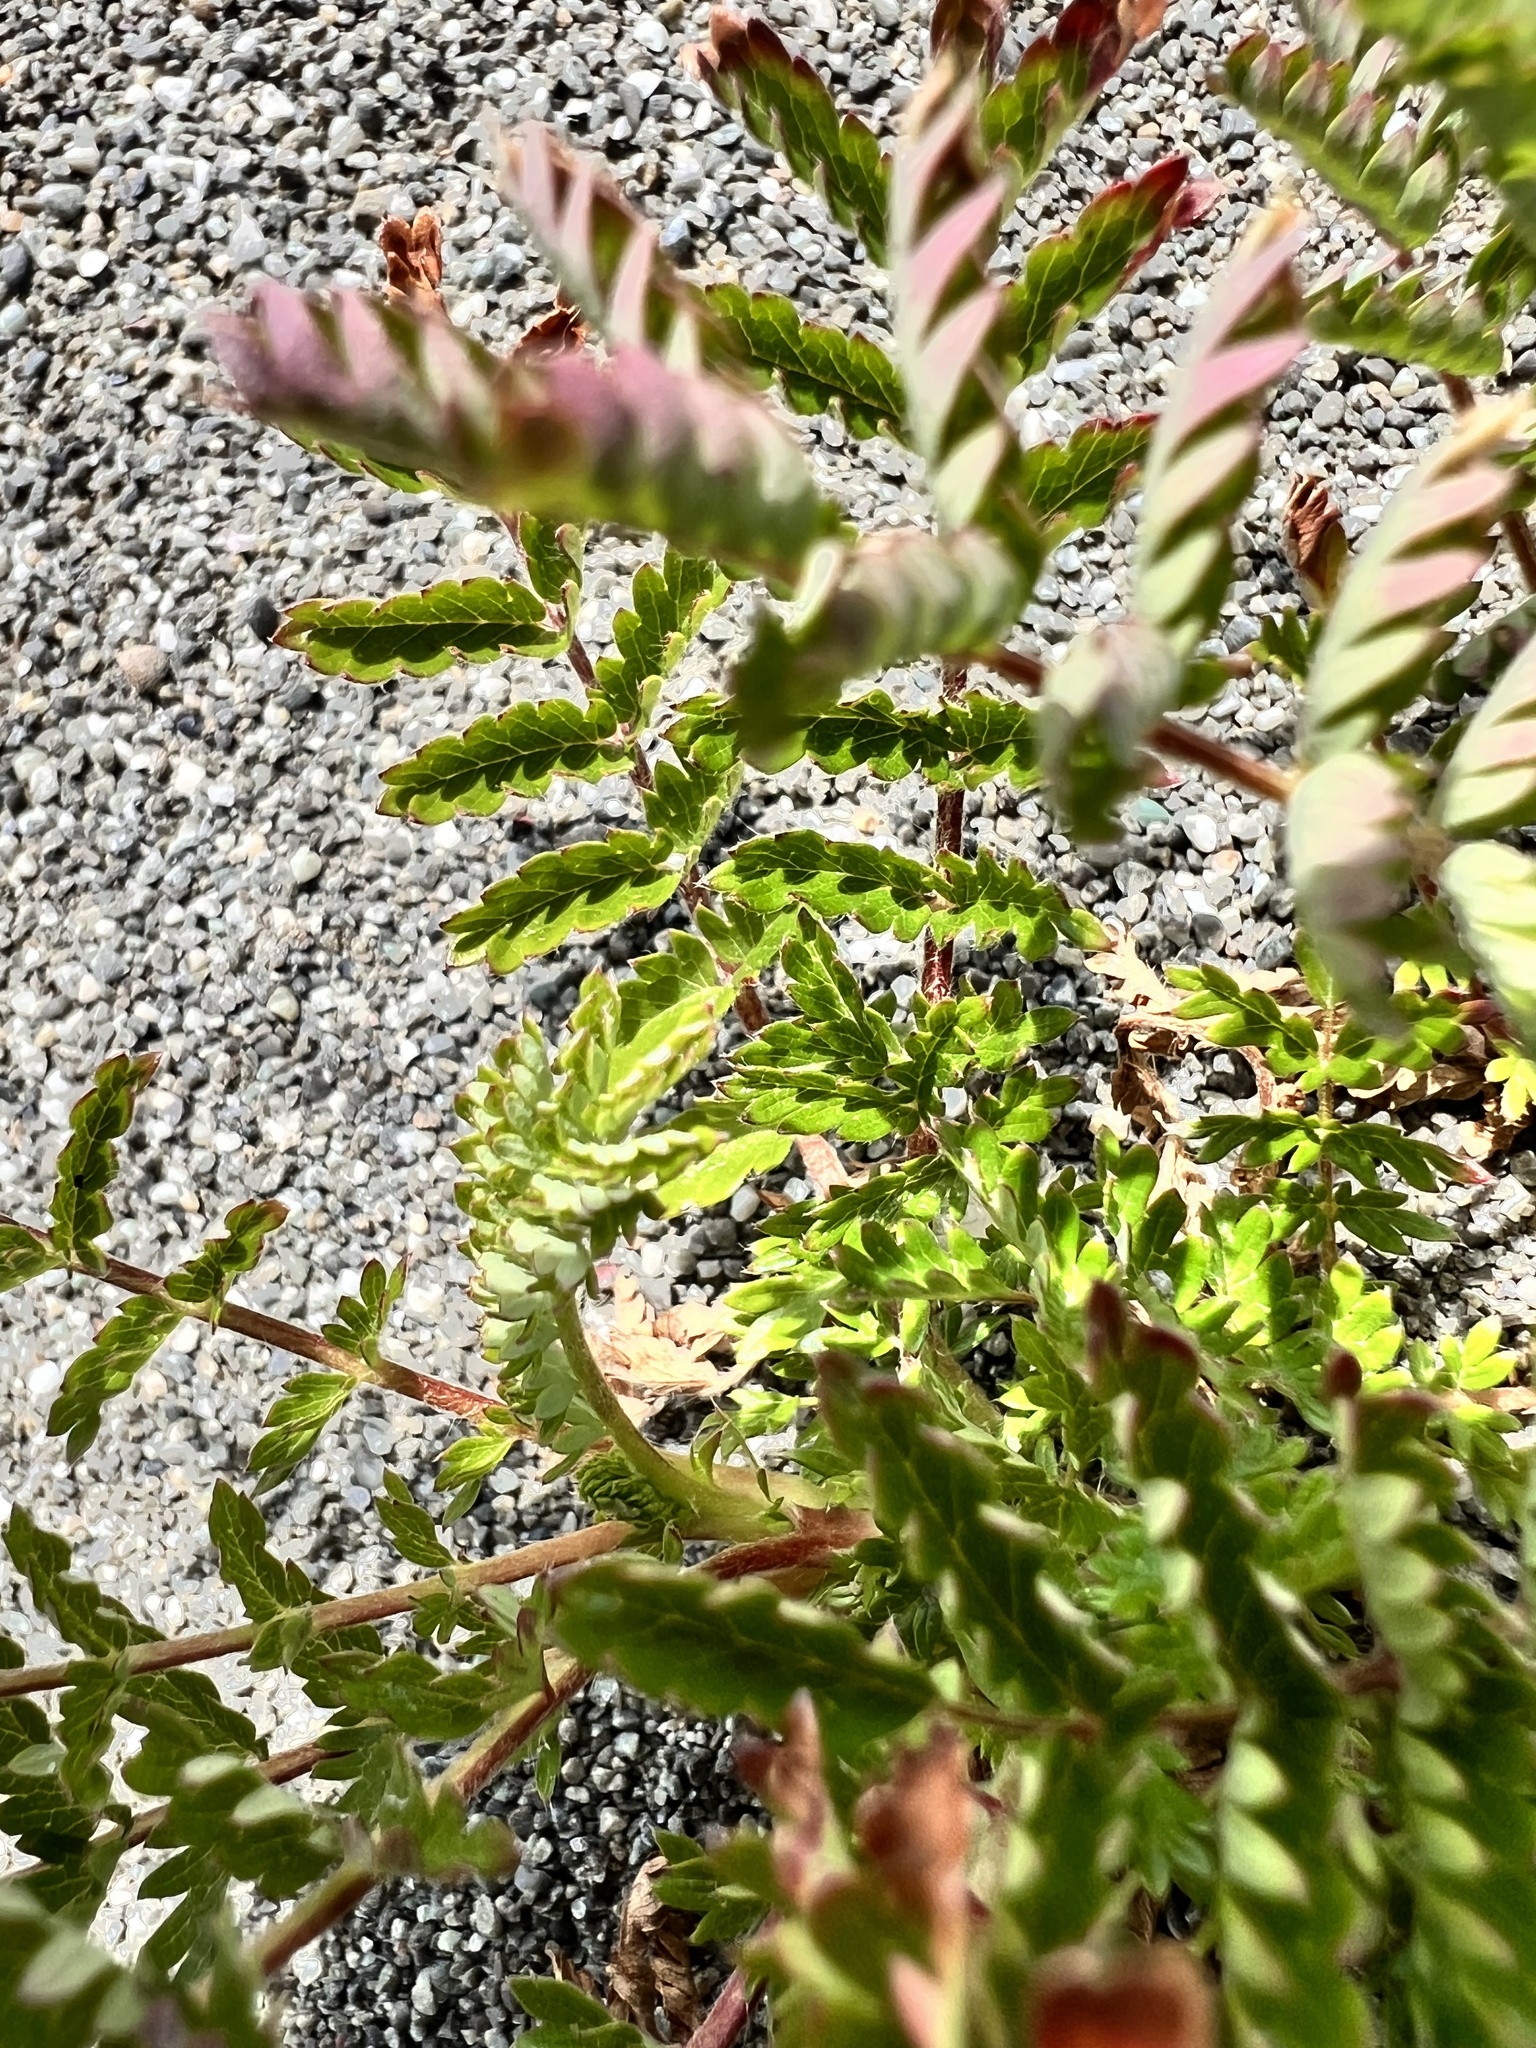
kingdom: Plantae
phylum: Tracheophyta
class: Magnoliopsida
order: Rosales
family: Rosaceae
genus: Acaena
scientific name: Acaena agnipila
